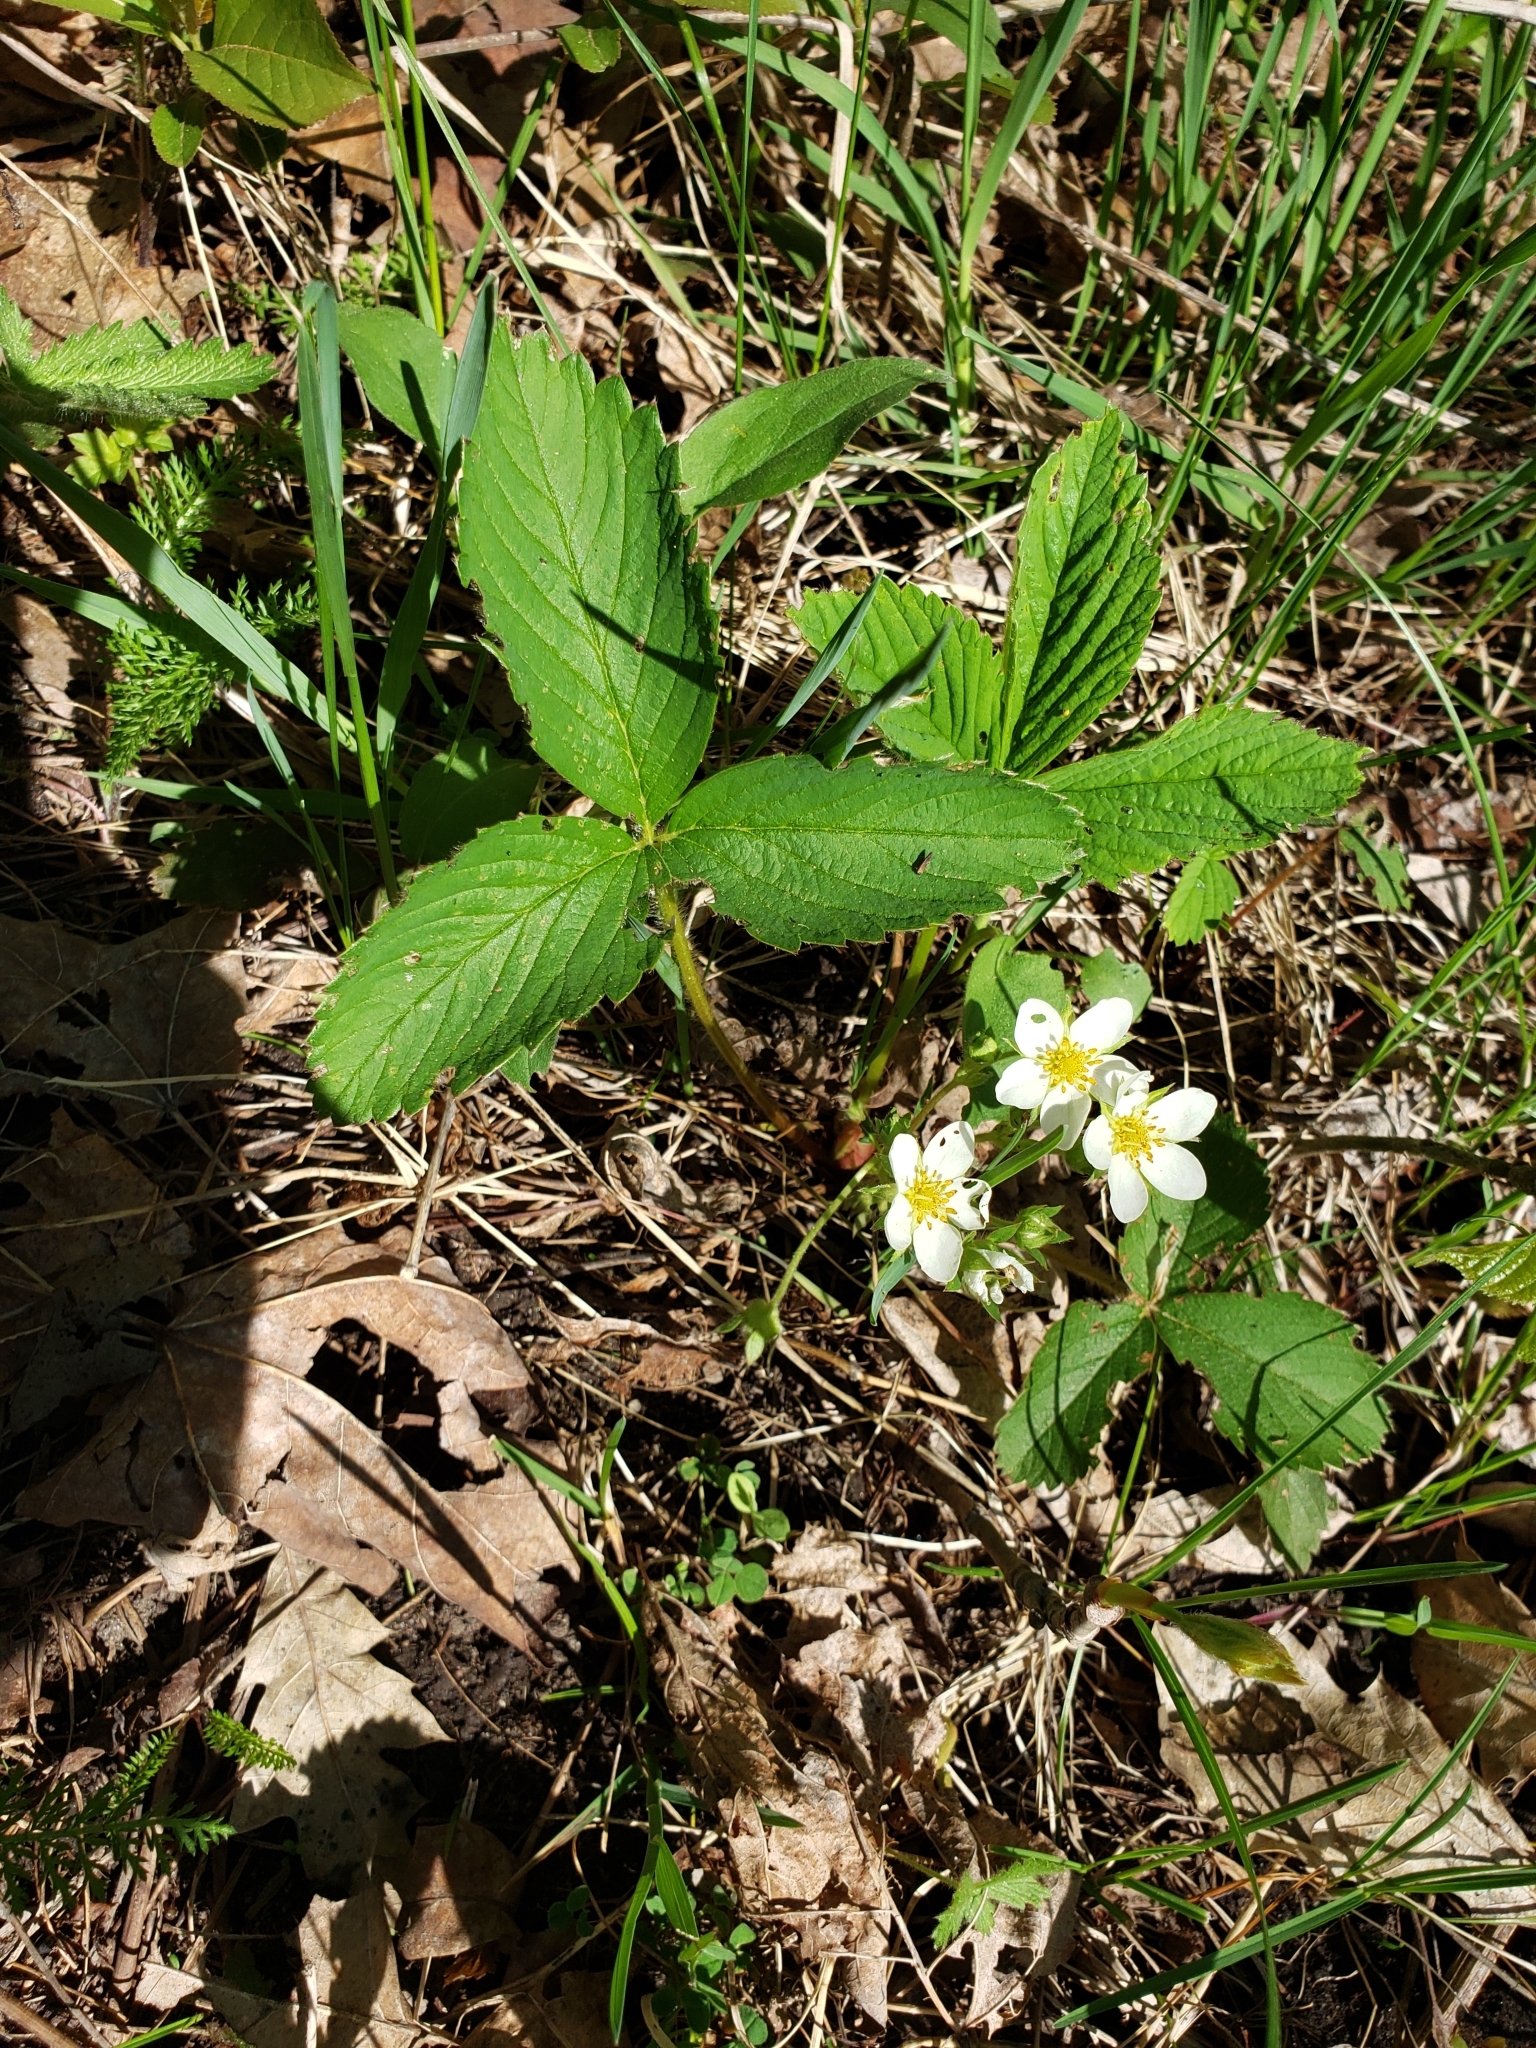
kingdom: Plantae
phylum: Tracheophyta
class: Magnoliopsida
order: Rosales
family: Rosaceae
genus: Fragaria
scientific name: Fragaria virginiana
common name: Thickleaved wild strawberry
